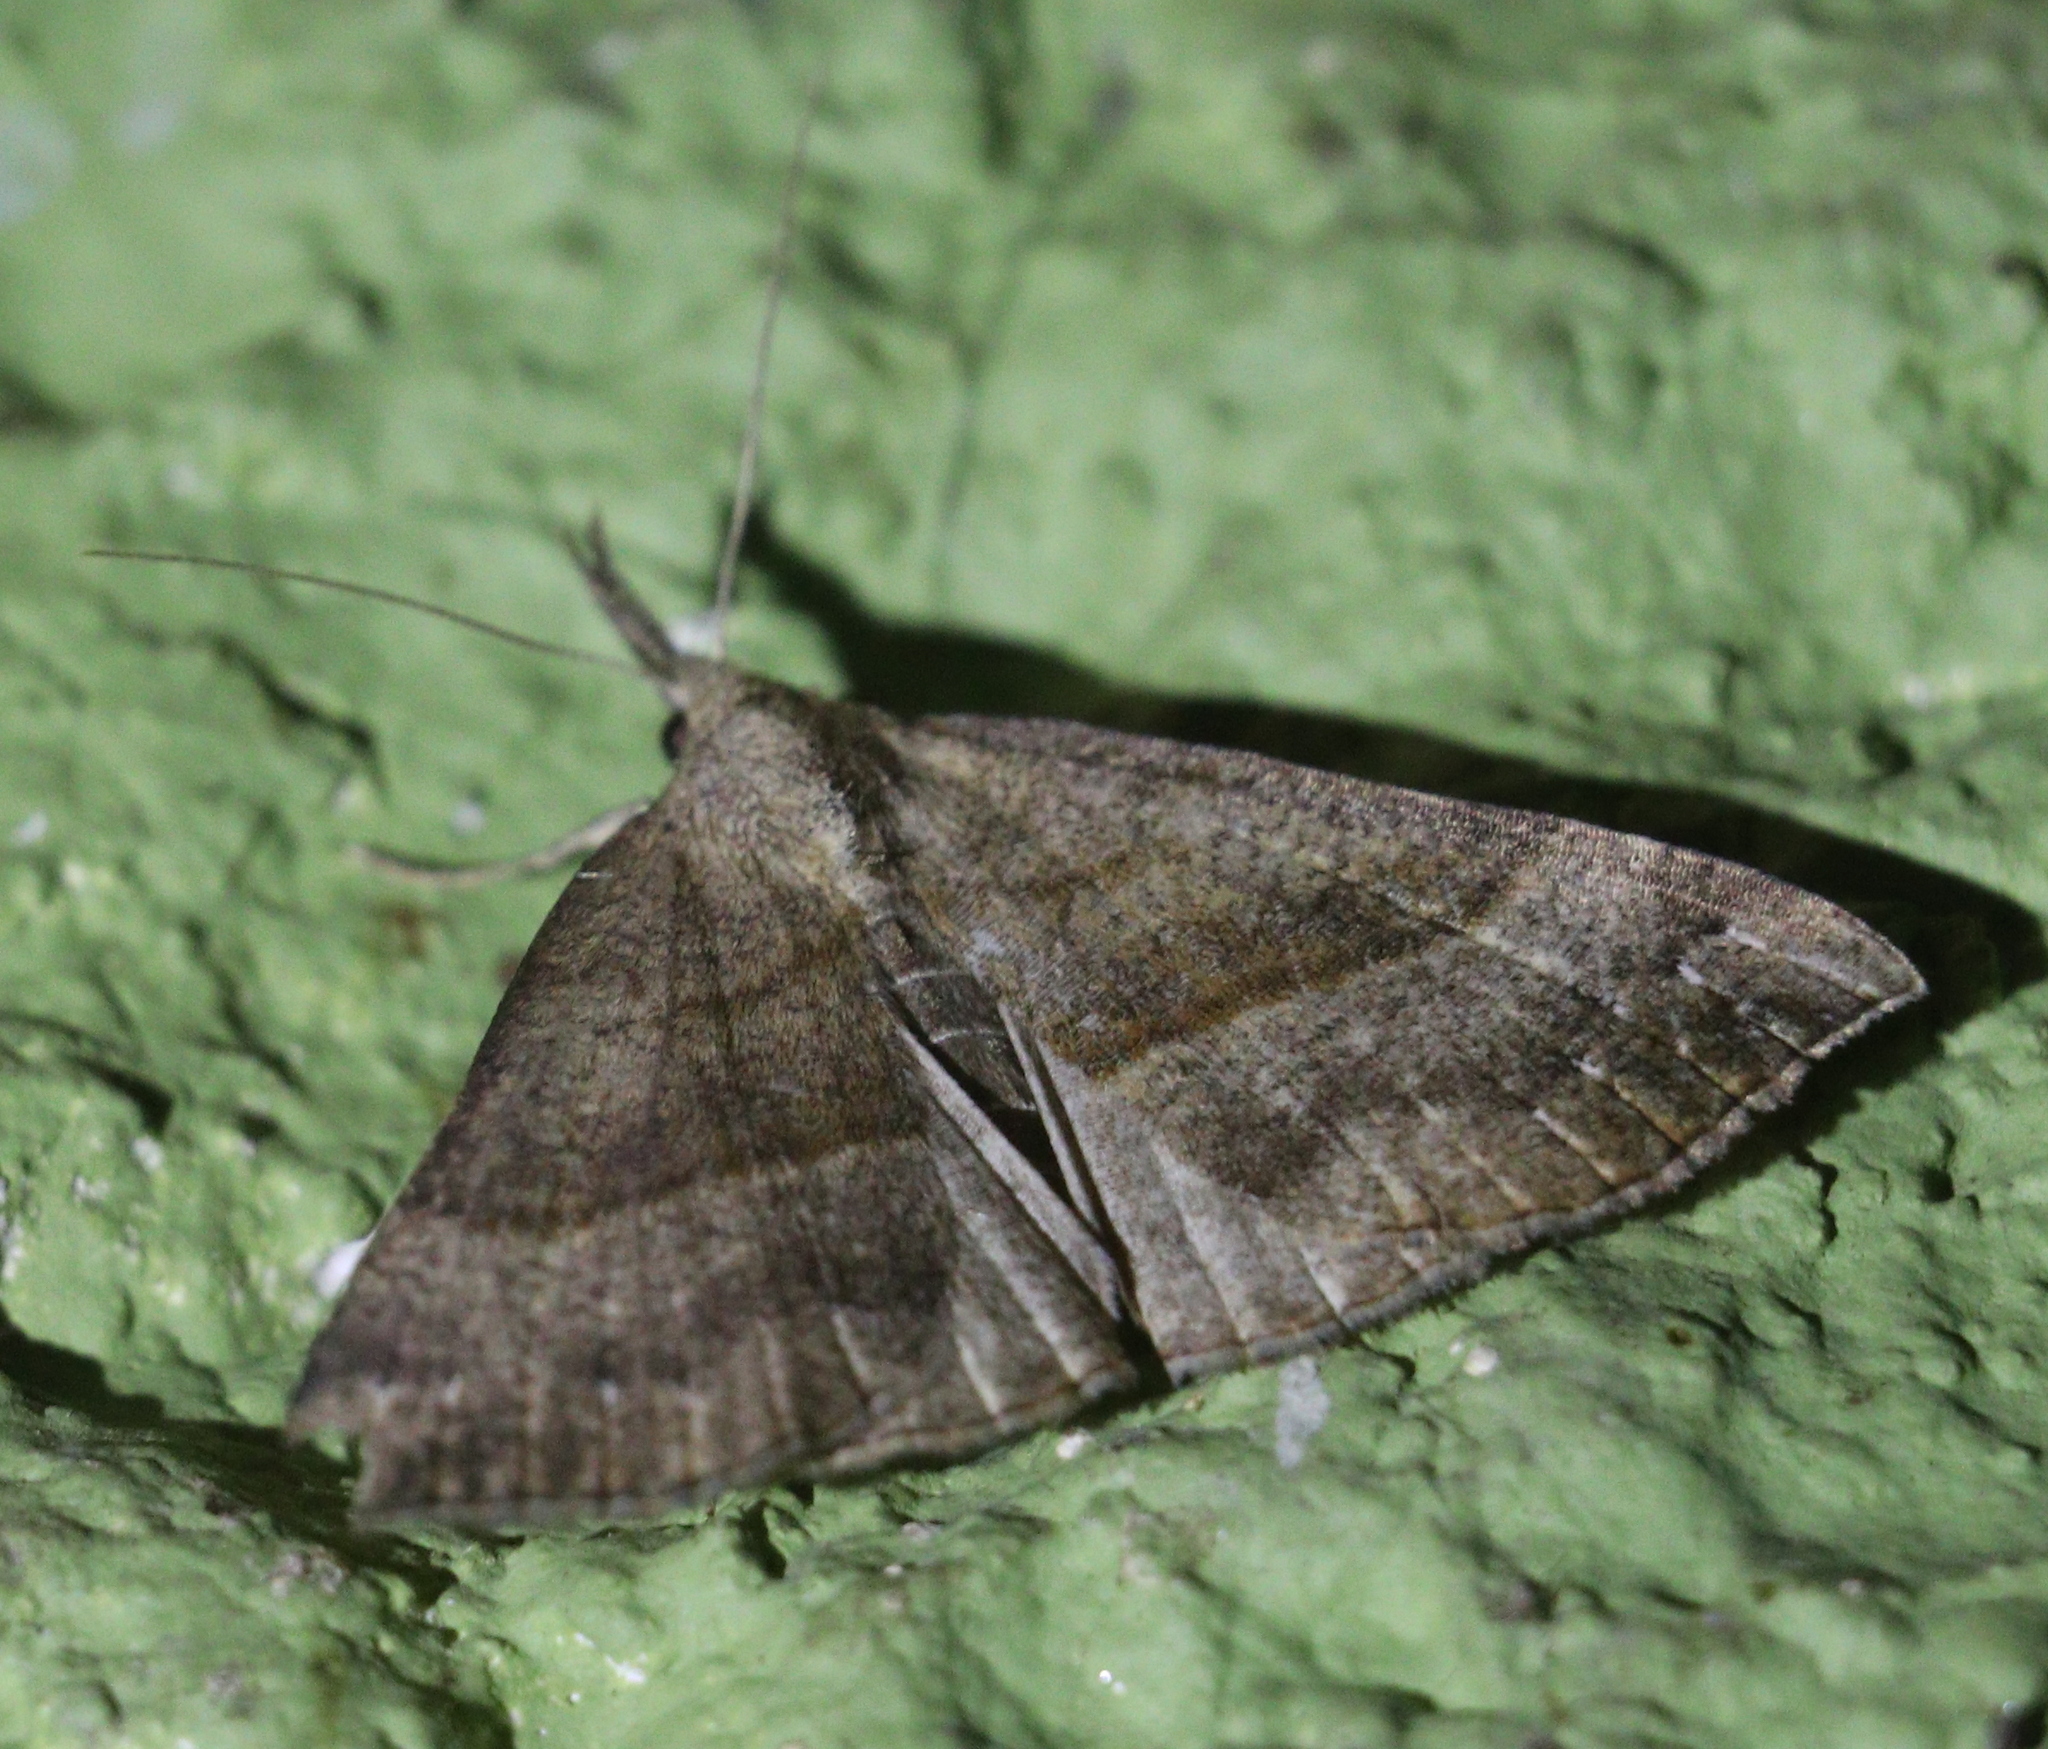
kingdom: Animalia
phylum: Arthropoda
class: Insecta
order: Lepidoptera
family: Erebidae
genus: Hypena
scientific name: Hypena proboscidalis
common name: Snout
